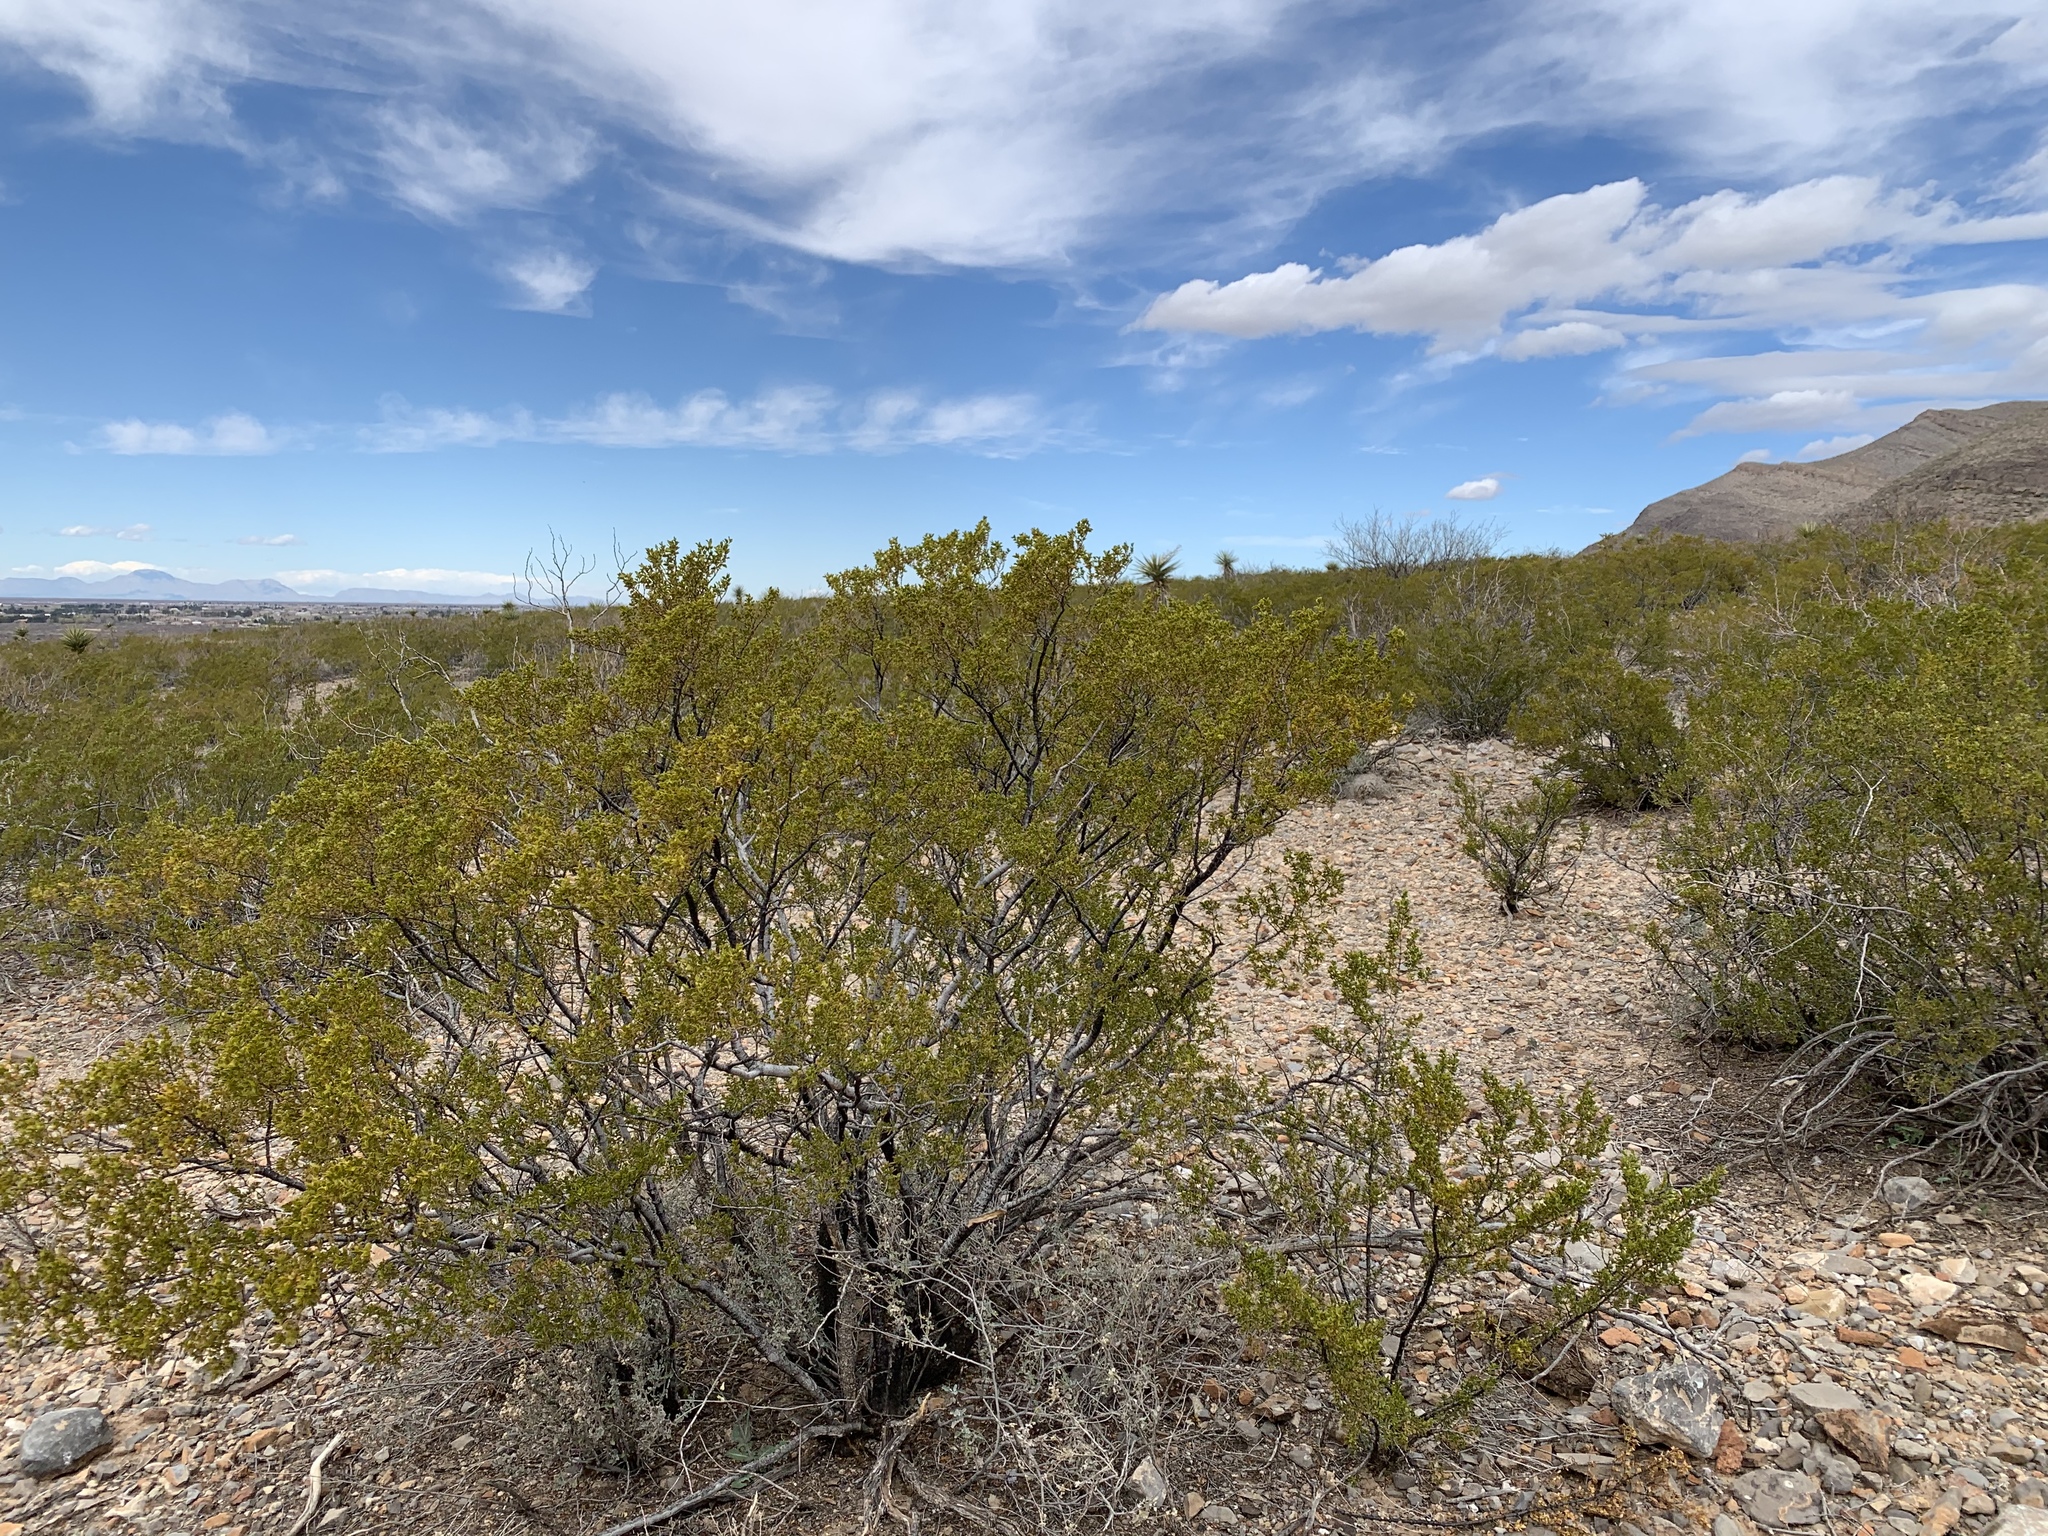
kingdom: Plantae
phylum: Tracheophyta
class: Magnoliopsida
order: Zygophyllales
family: Zygophyllaceae
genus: Larrea
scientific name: Larrea tridentata
